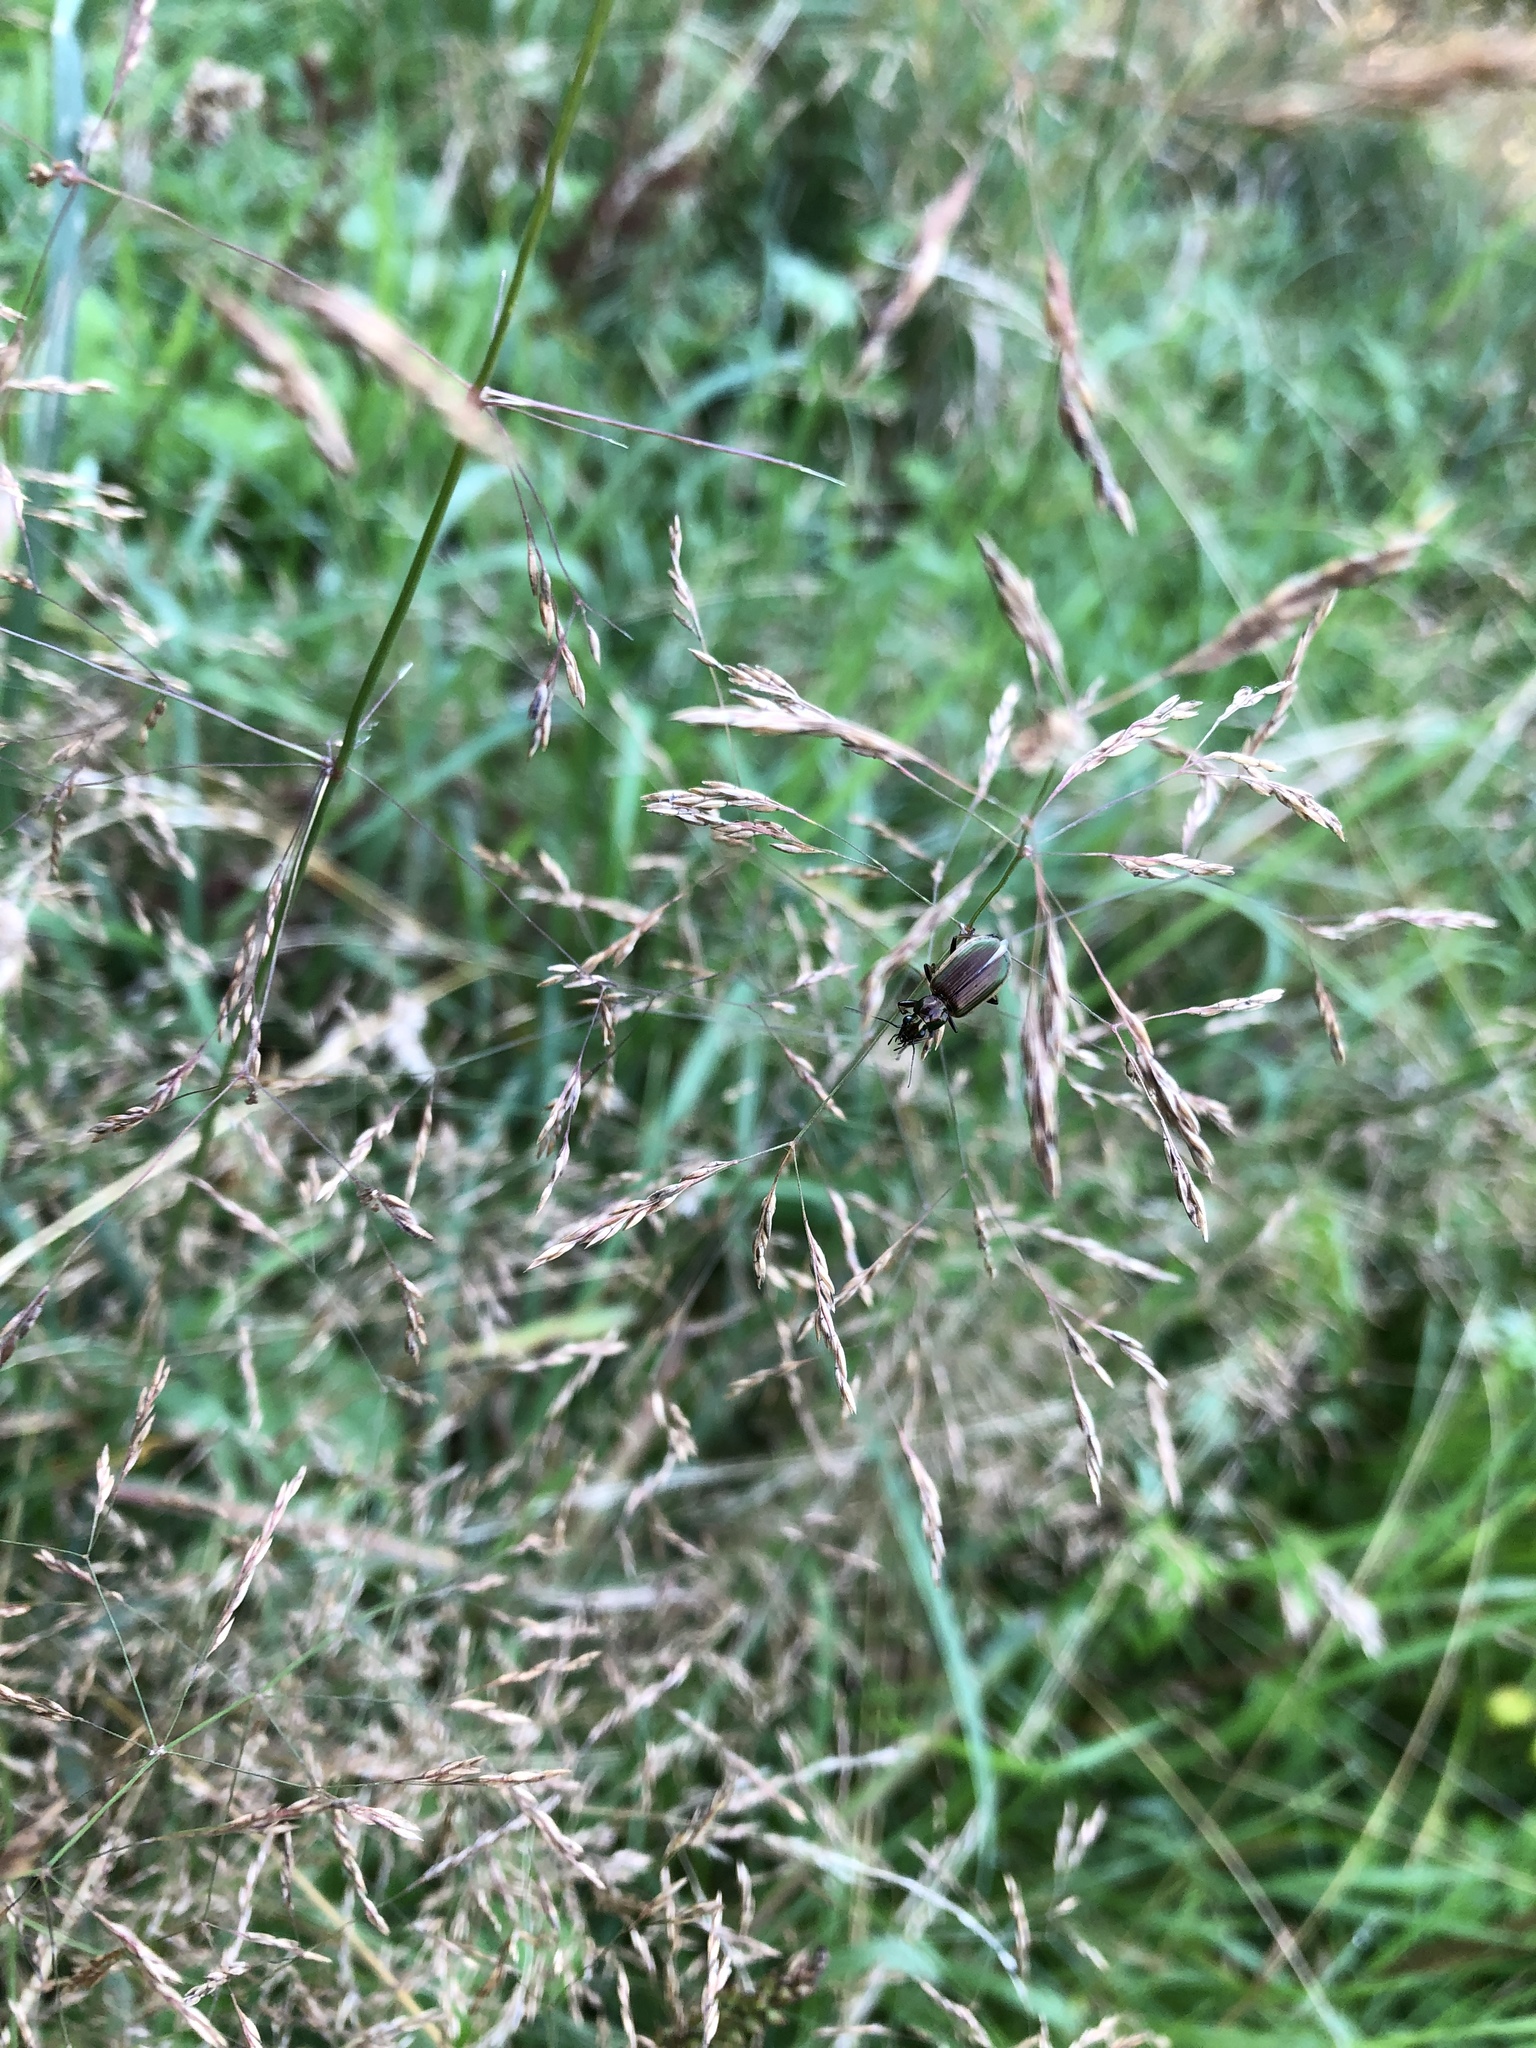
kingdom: Plantae
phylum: Tracheophyta
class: Liliopsida
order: Poales
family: Poaceae
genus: Agrostis
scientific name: Agrostis gigantea
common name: Black bent
